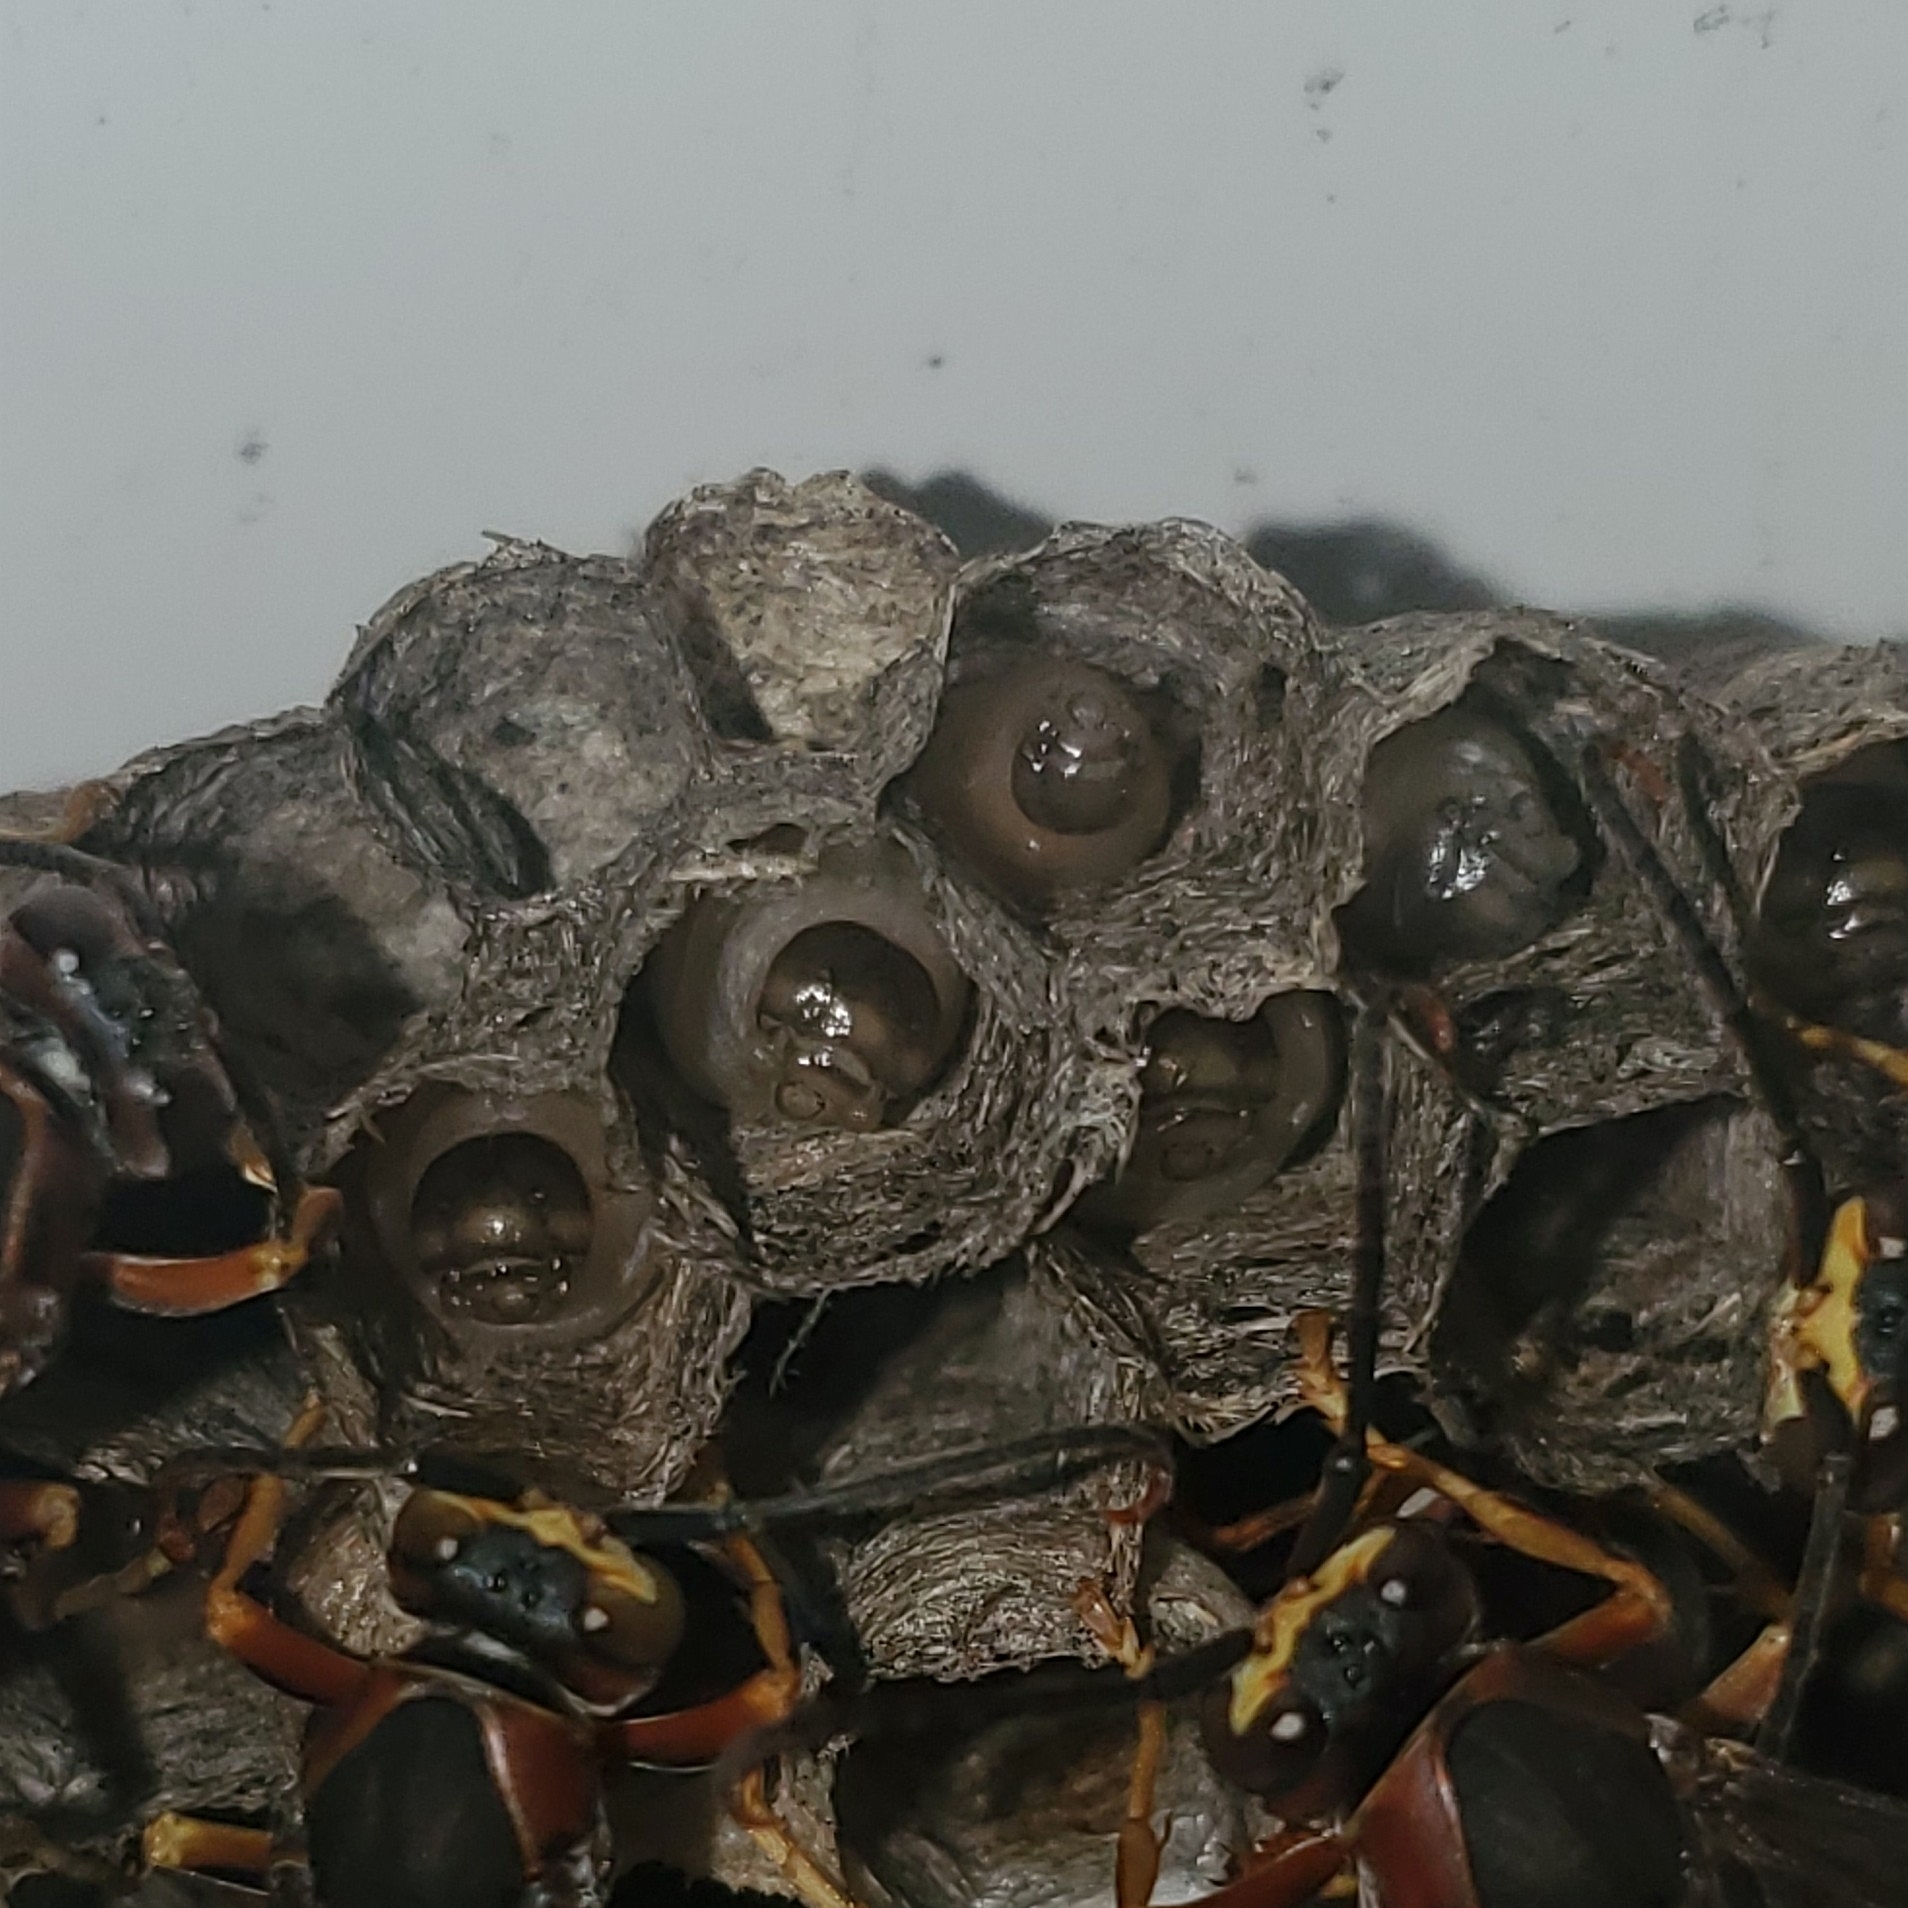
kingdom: Animalia
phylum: Arthropoda
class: Insecta
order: Hymenoptera
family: Eumenidae
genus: Polistes
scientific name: Polistes metricus
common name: Metric paper wasp
